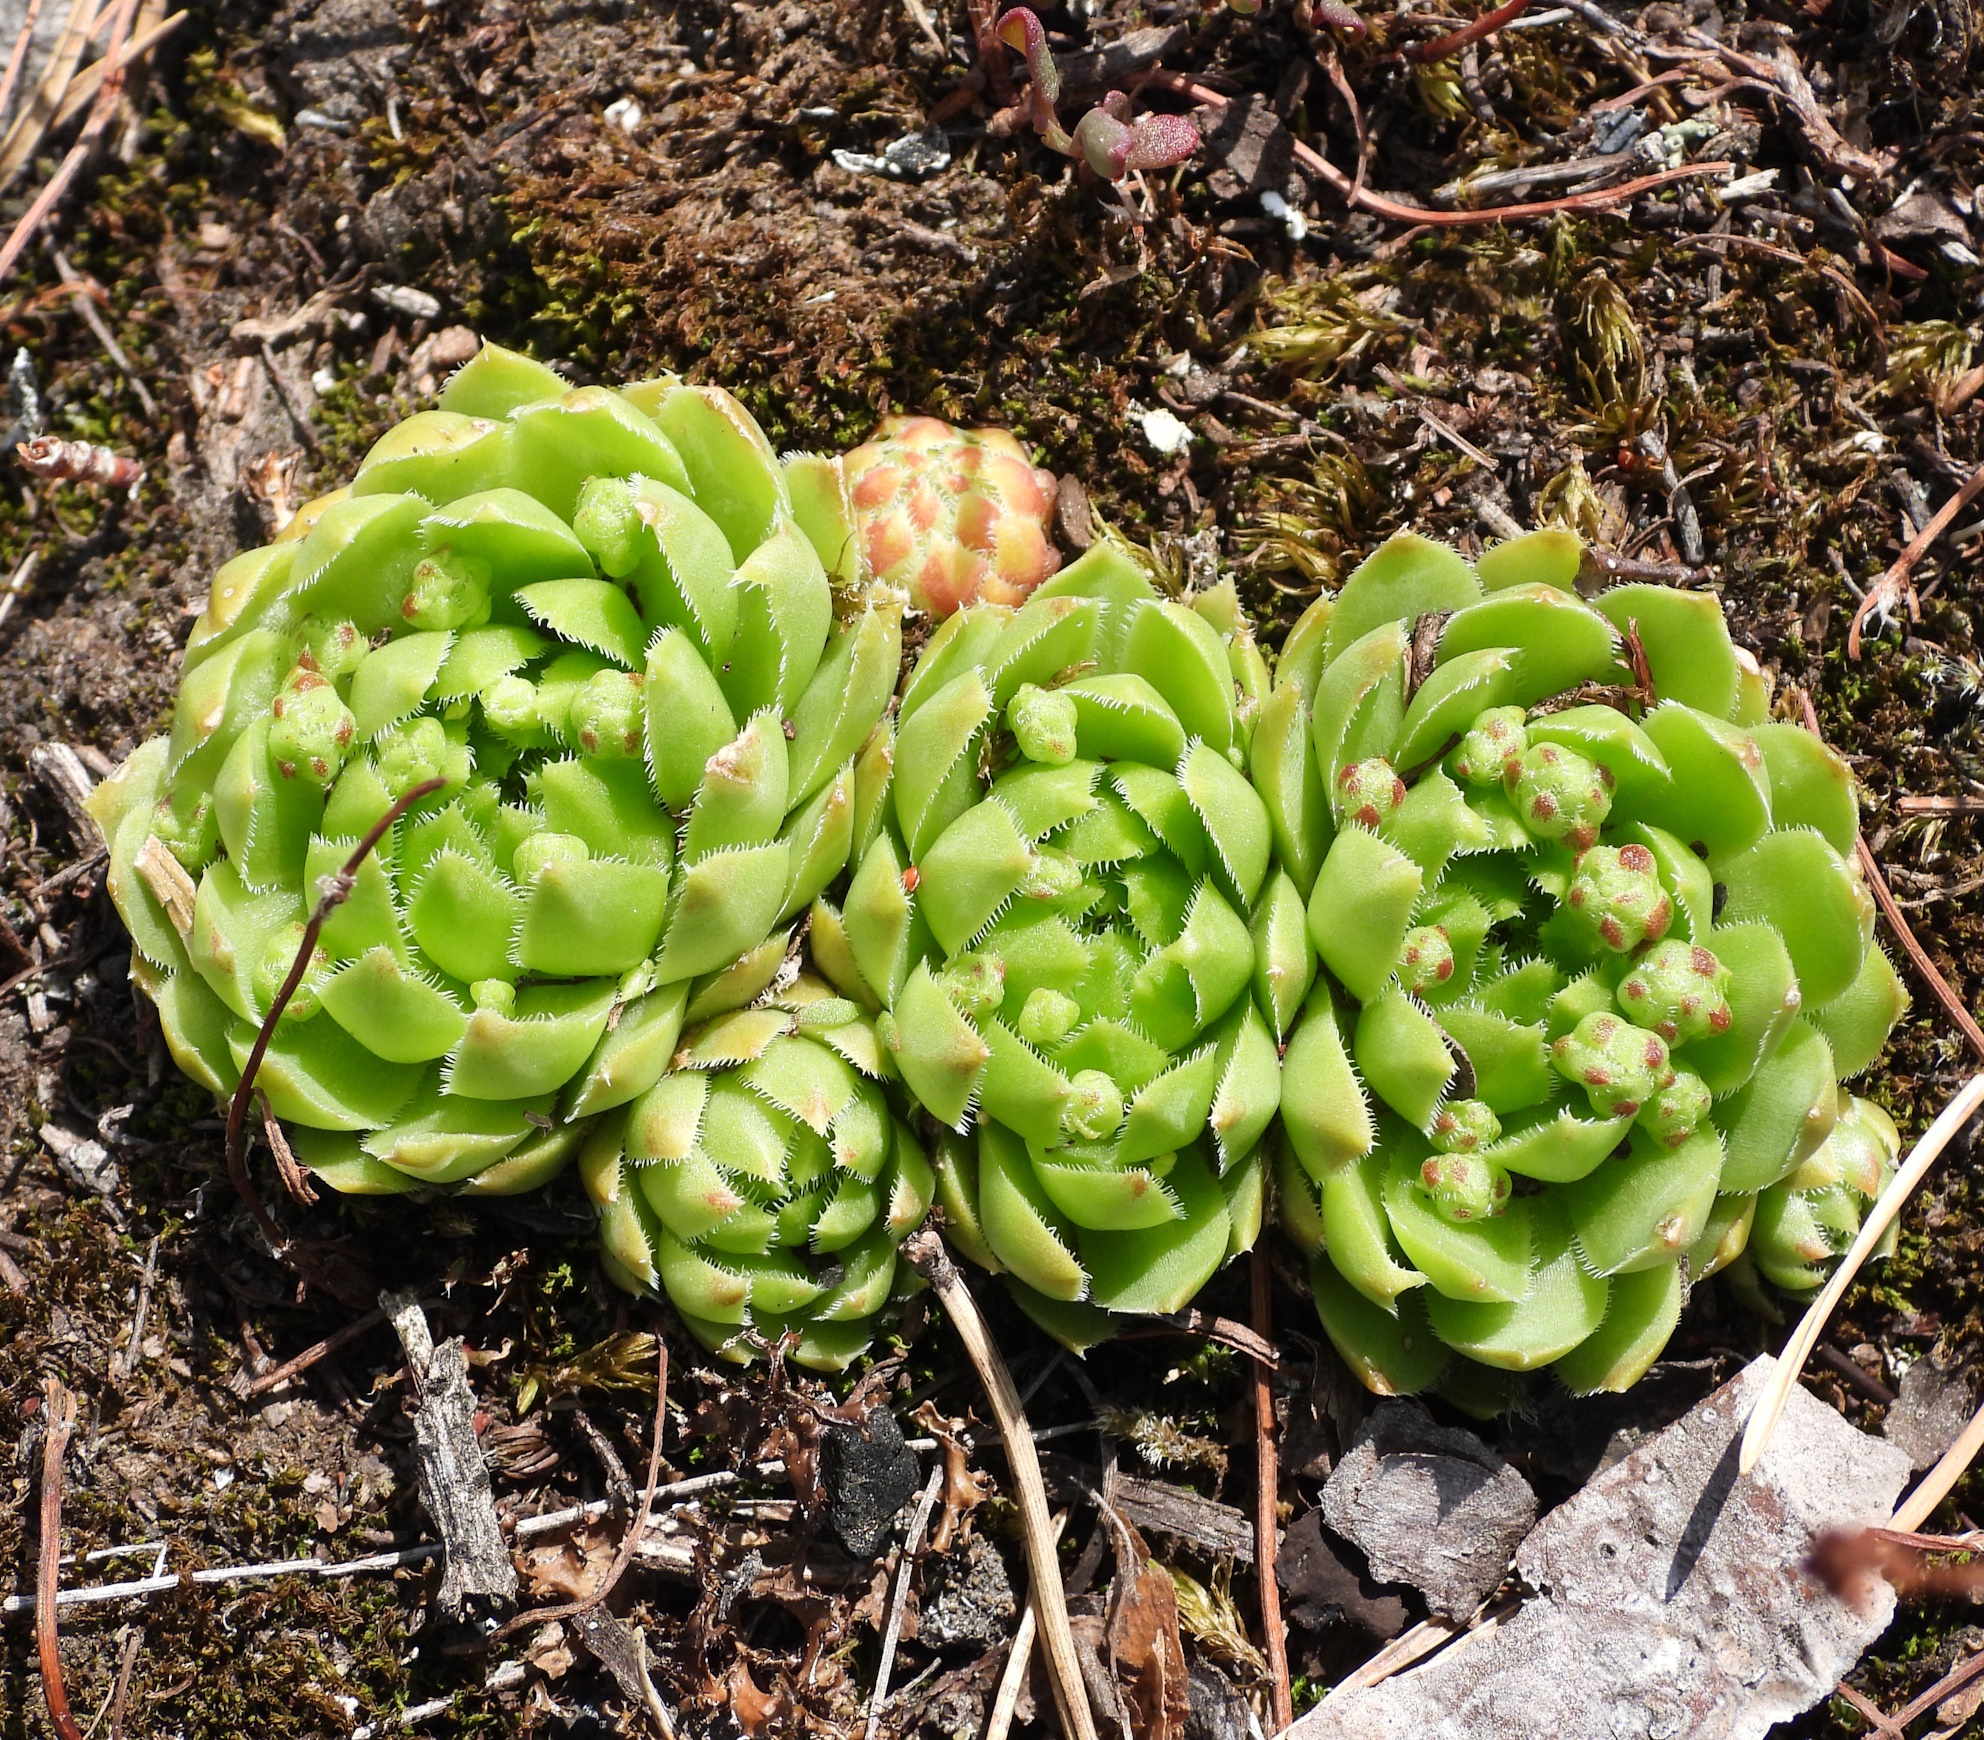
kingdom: Plantae
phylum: Tracheophyta
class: Magnoliopsida
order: Saxifragales
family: Crassulaceae
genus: Sempervivum
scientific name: Sempervivum globiferum
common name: Rolling hen-and-chicks
